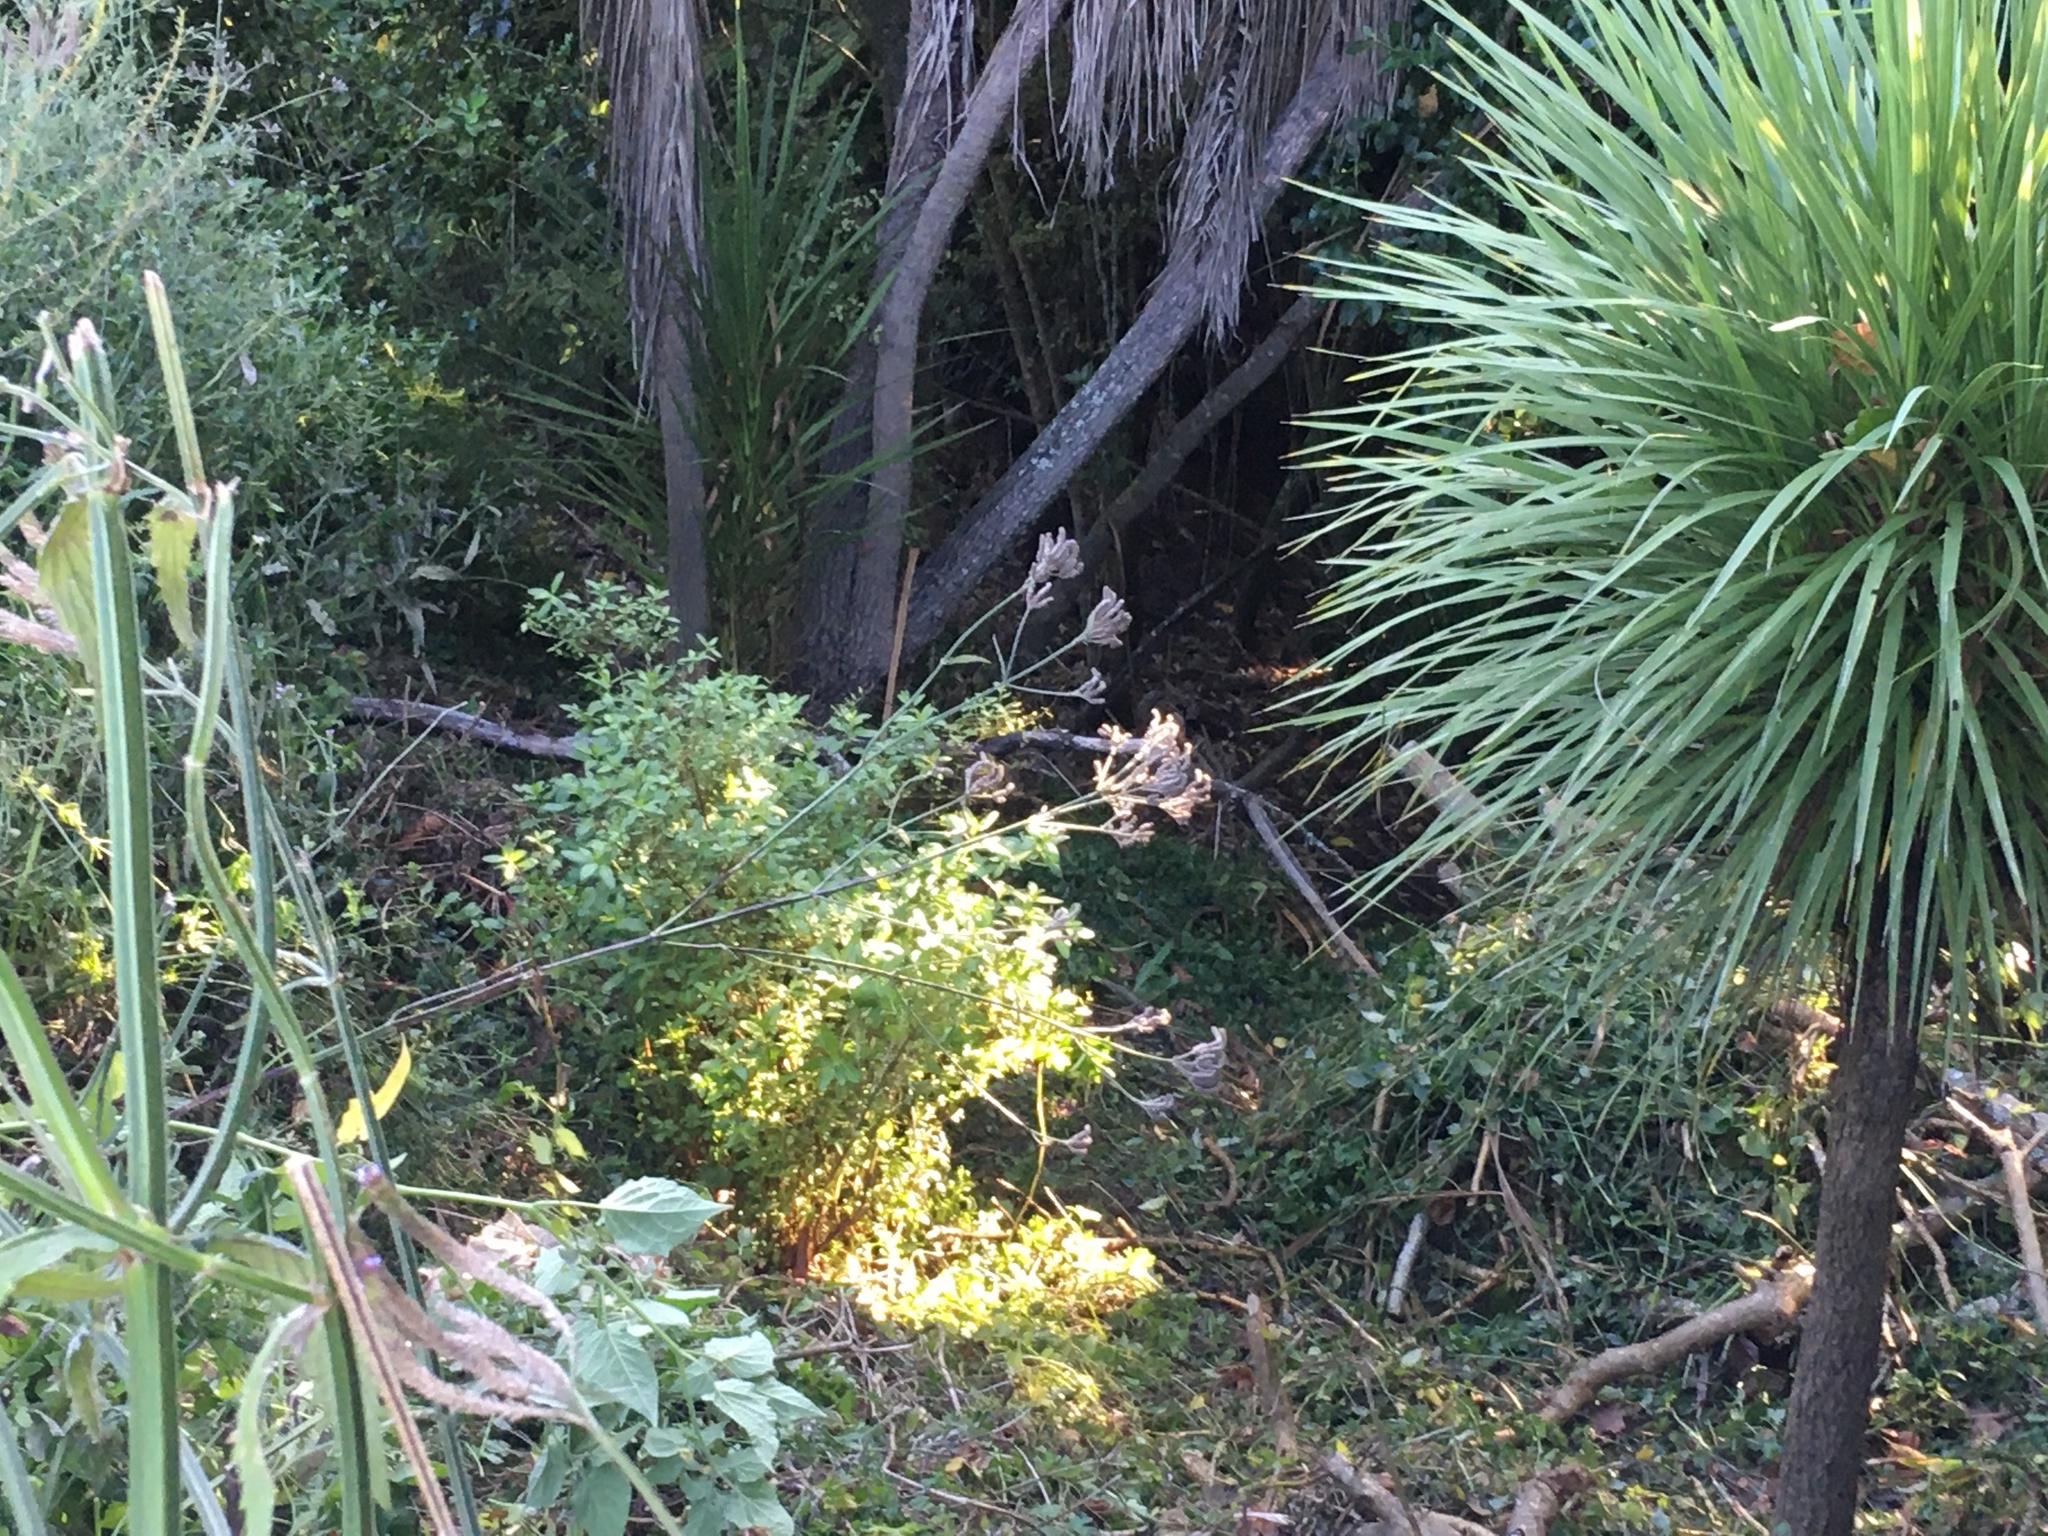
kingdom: Plantae
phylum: Tracheophyta
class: Liliopsida
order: Asparagales
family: Asparagaceae
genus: Cordyline
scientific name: Cordyline australis
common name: Cabbage-palm
